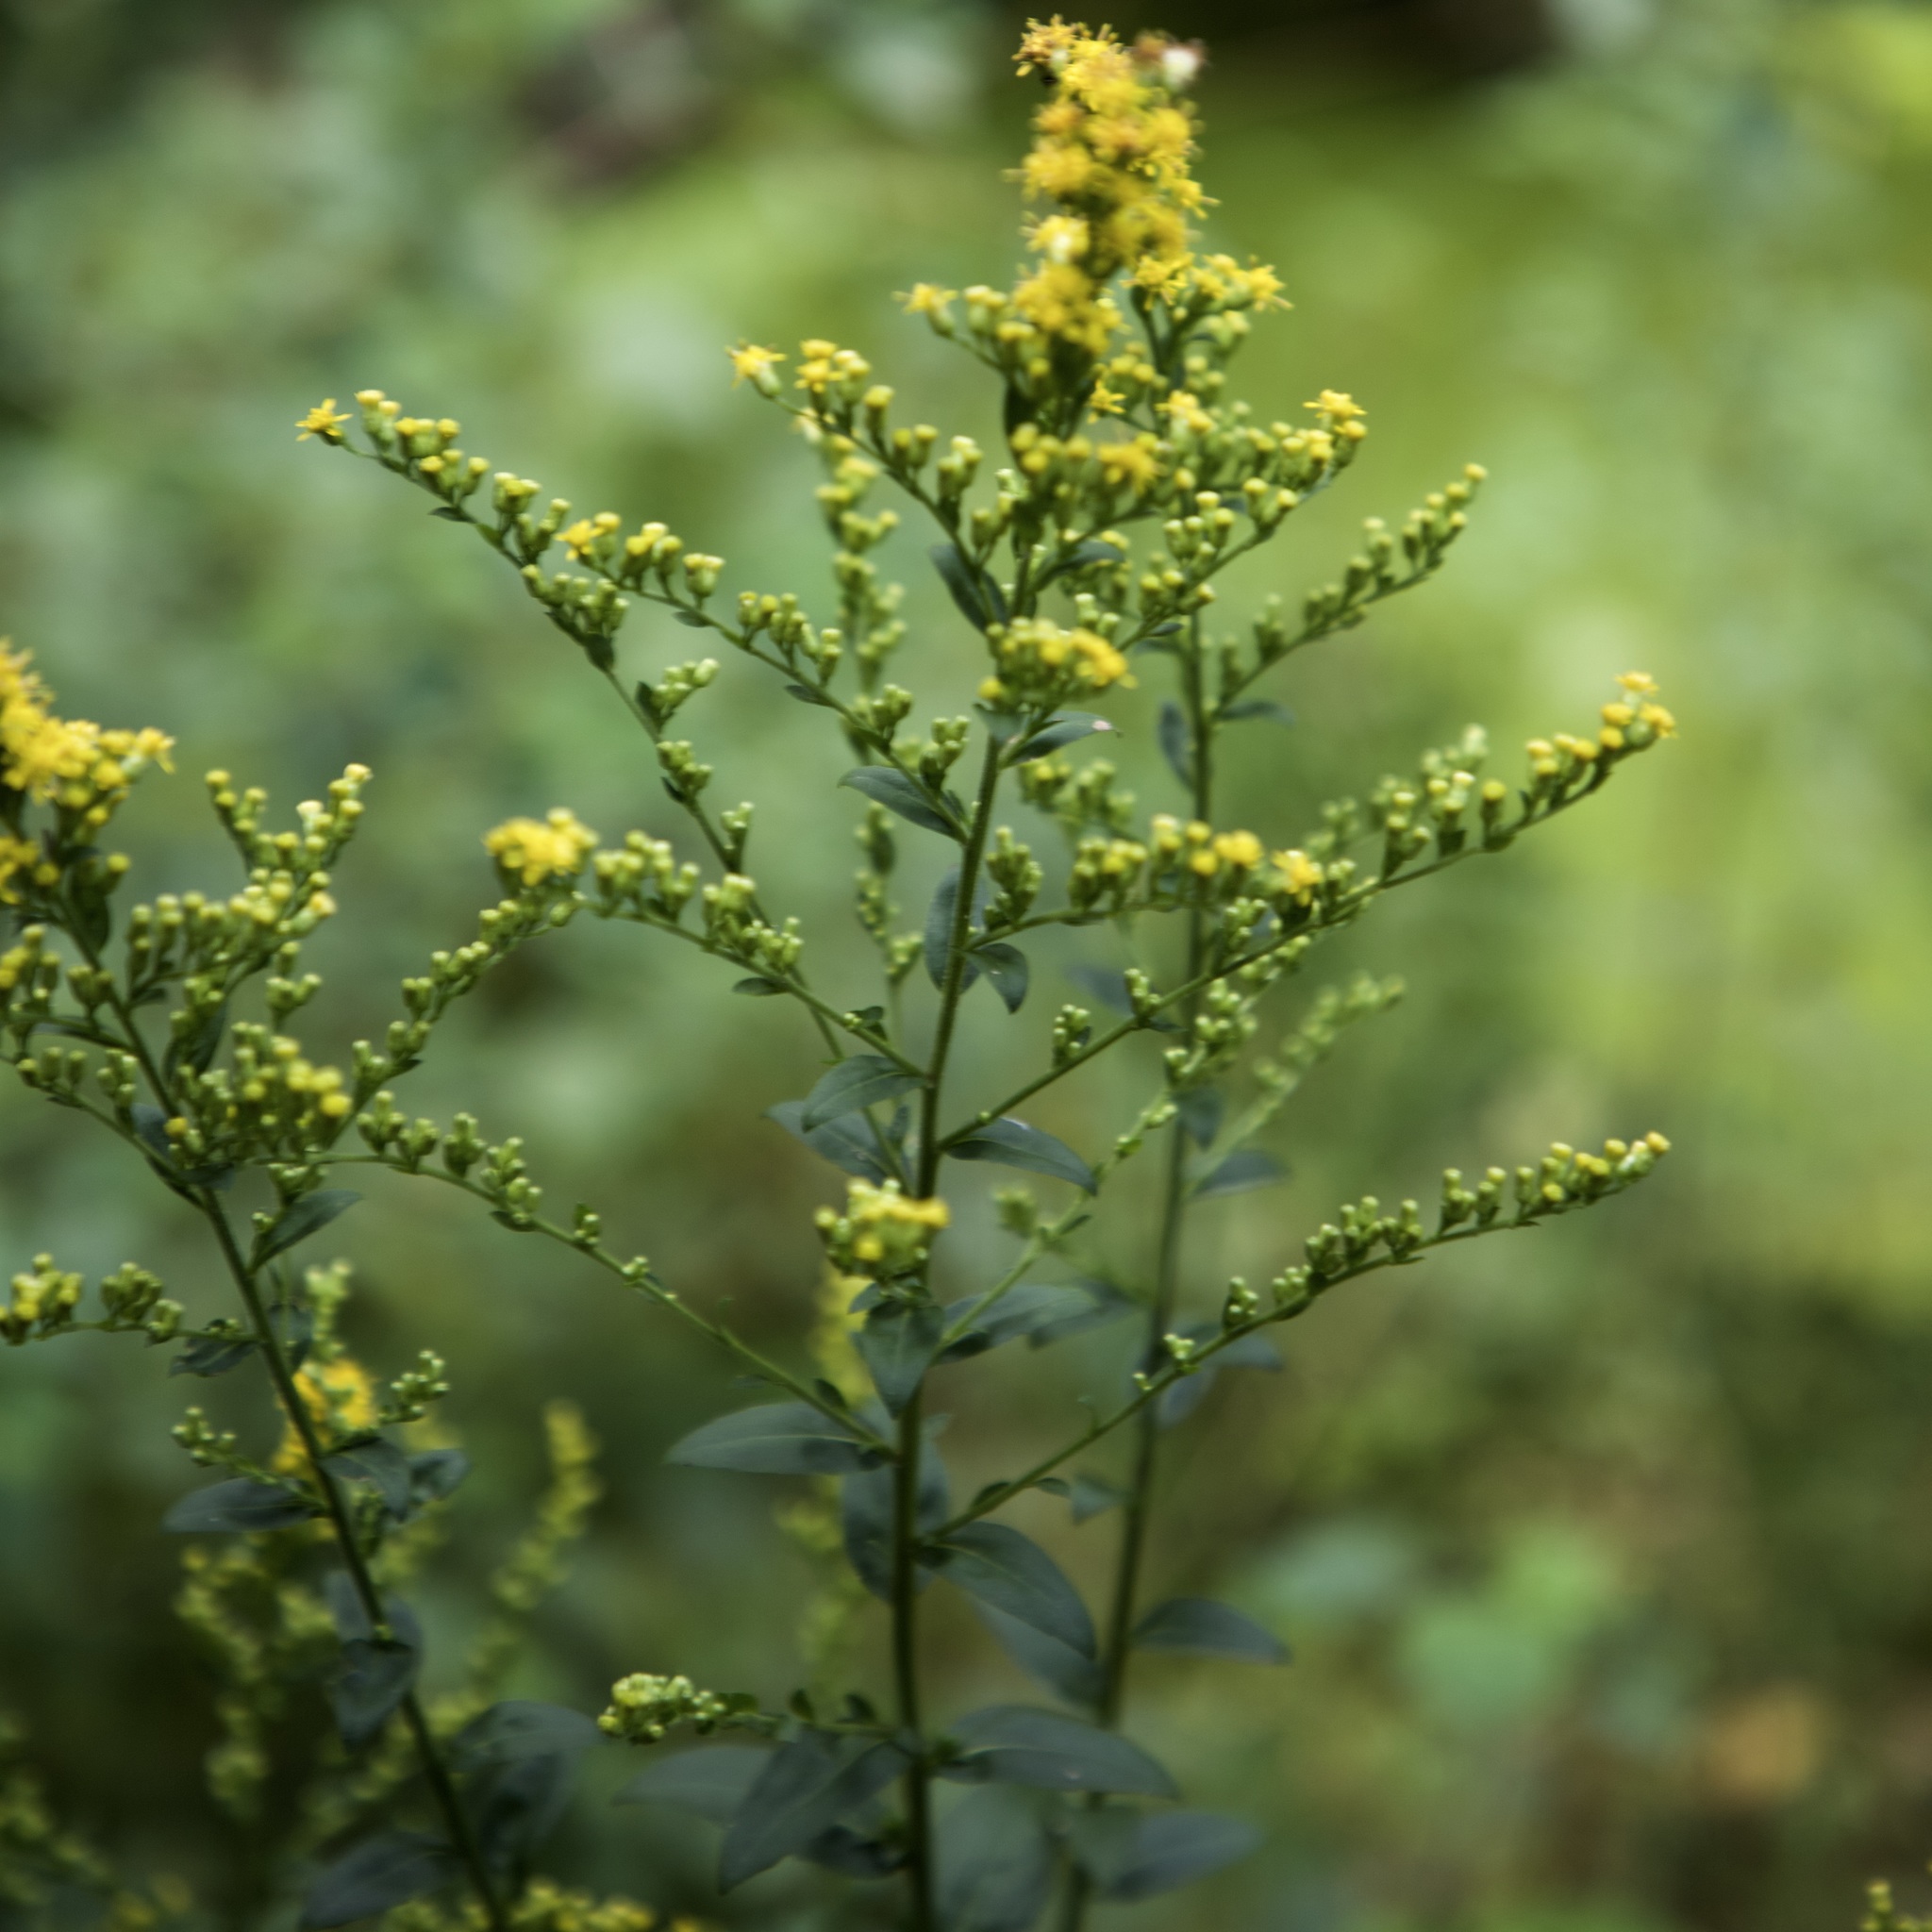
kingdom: Plantae
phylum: Tracheophyta
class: Magnoliopsida
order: Asterales
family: Asteraceae
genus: Solidago
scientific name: Solidago patula
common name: Rough-leaf goldenrod
